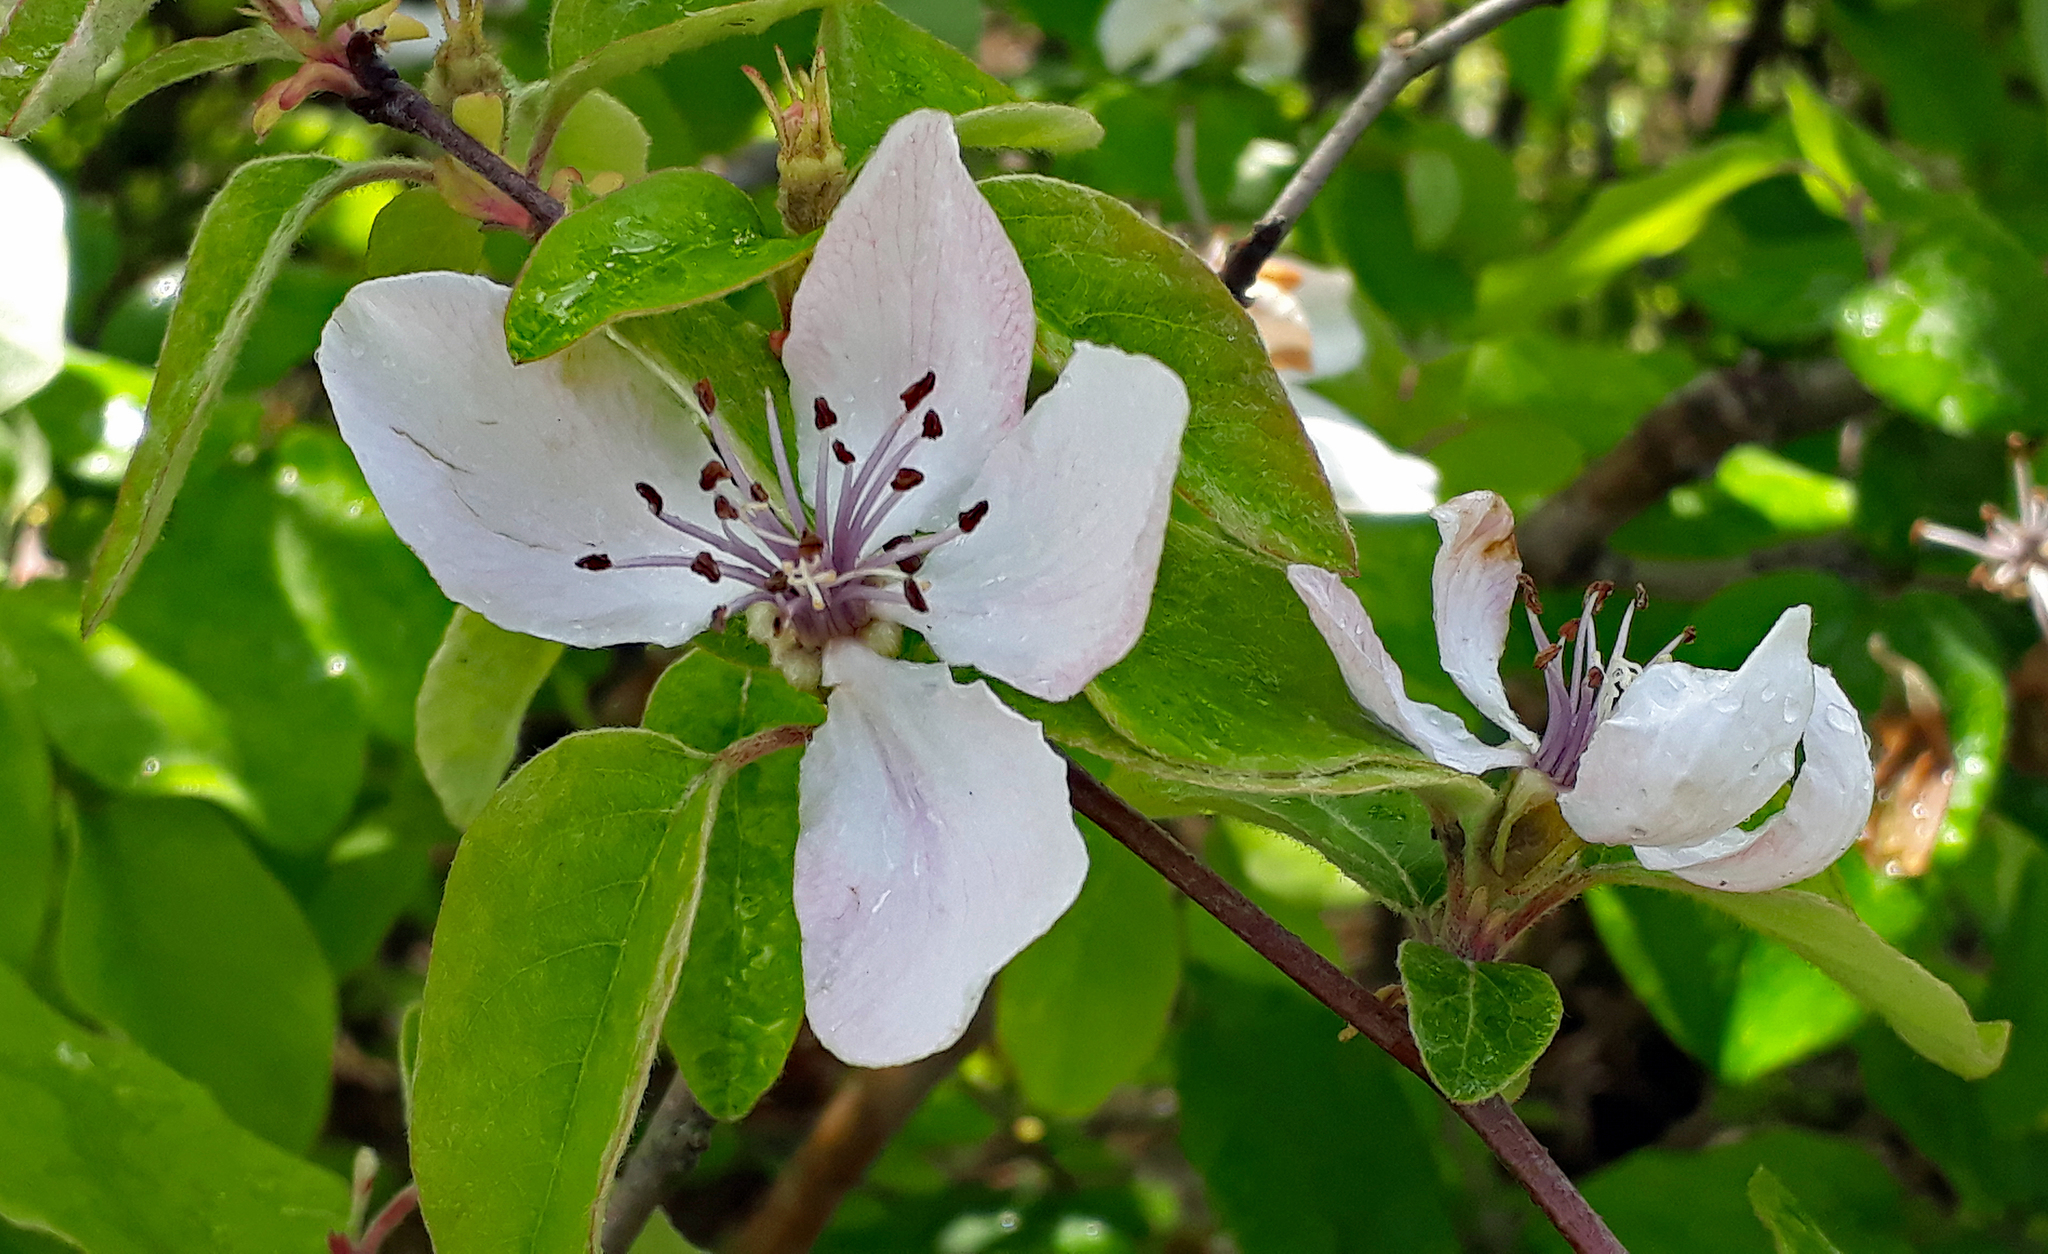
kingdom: Plantae
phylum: Tracheophyta
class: Magnoliopsida
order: Rosales
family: Rosaceae
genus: Cydonia
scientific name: Cydonia oblonga
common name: Quince
